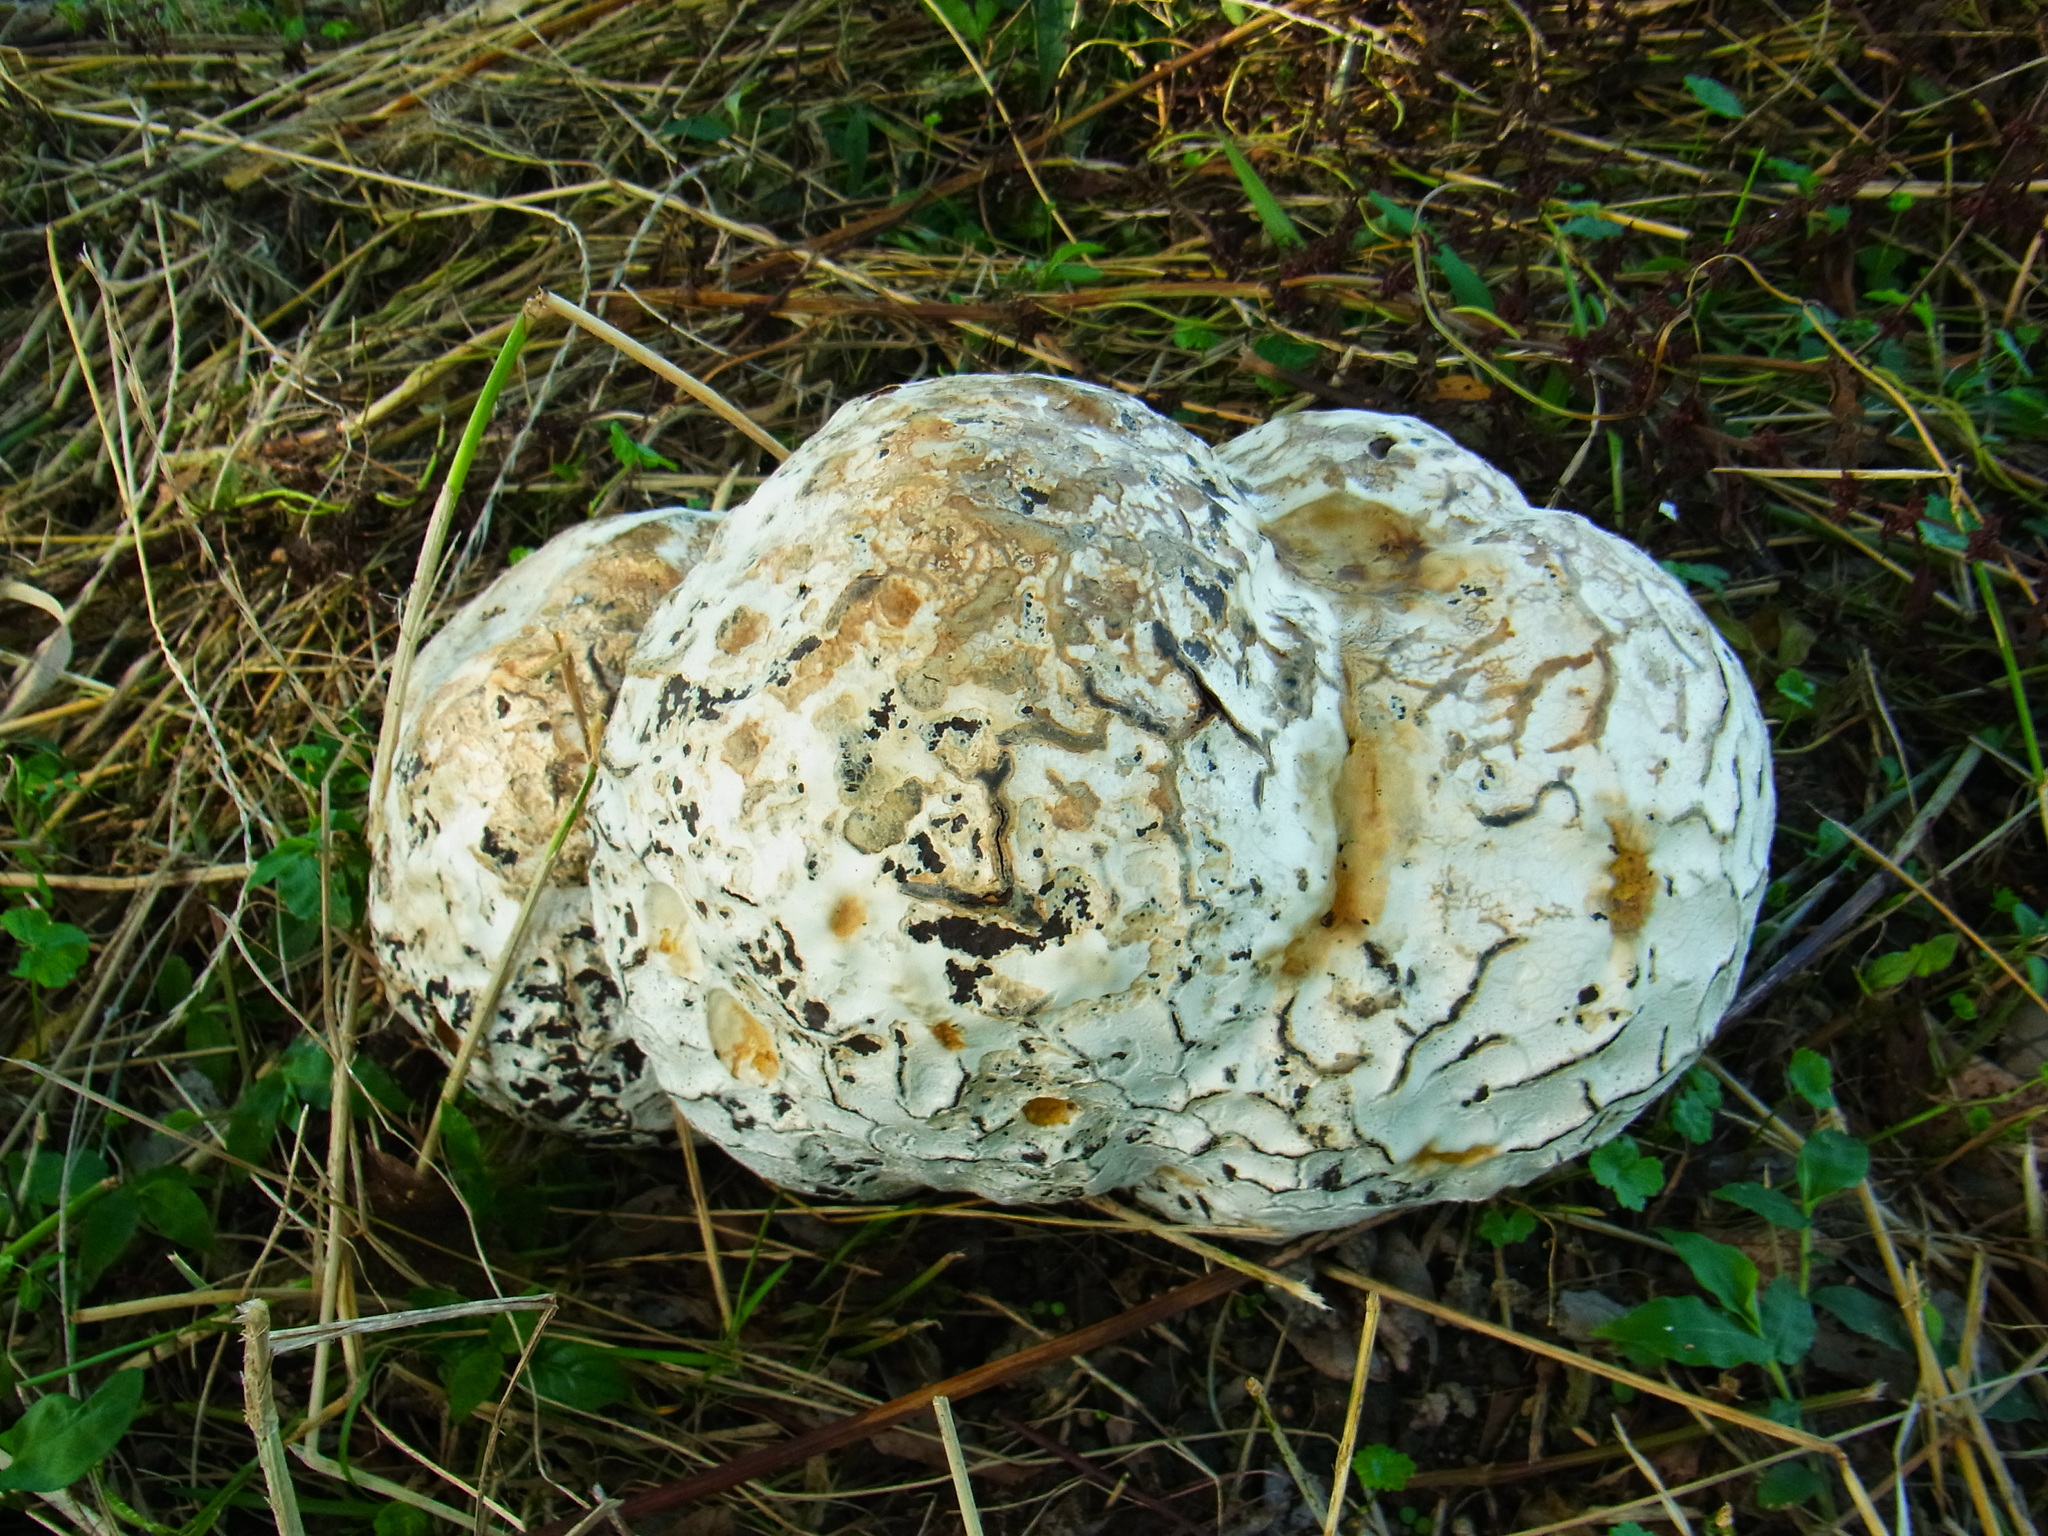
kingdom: Fungi
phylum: Basidiomycota
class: Agaricomycetes
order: Agaricales
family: Lycoperdaceae
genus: Calvatia
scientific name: Calvatia nipponica
